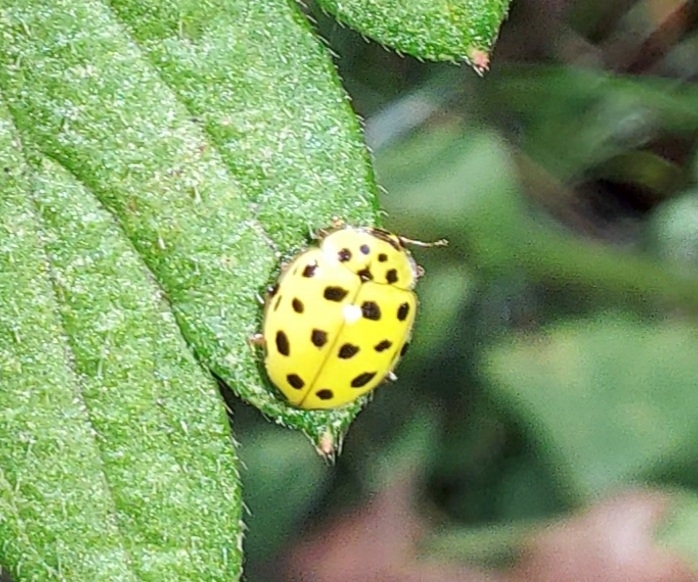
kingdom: Animalia
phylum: Arthropoda
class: Insecta
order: Coleoptera
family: Coccinellidae
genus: Psyllobora
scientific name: Psyllobora vigintiduopunctata
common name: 22-spot ladybird
